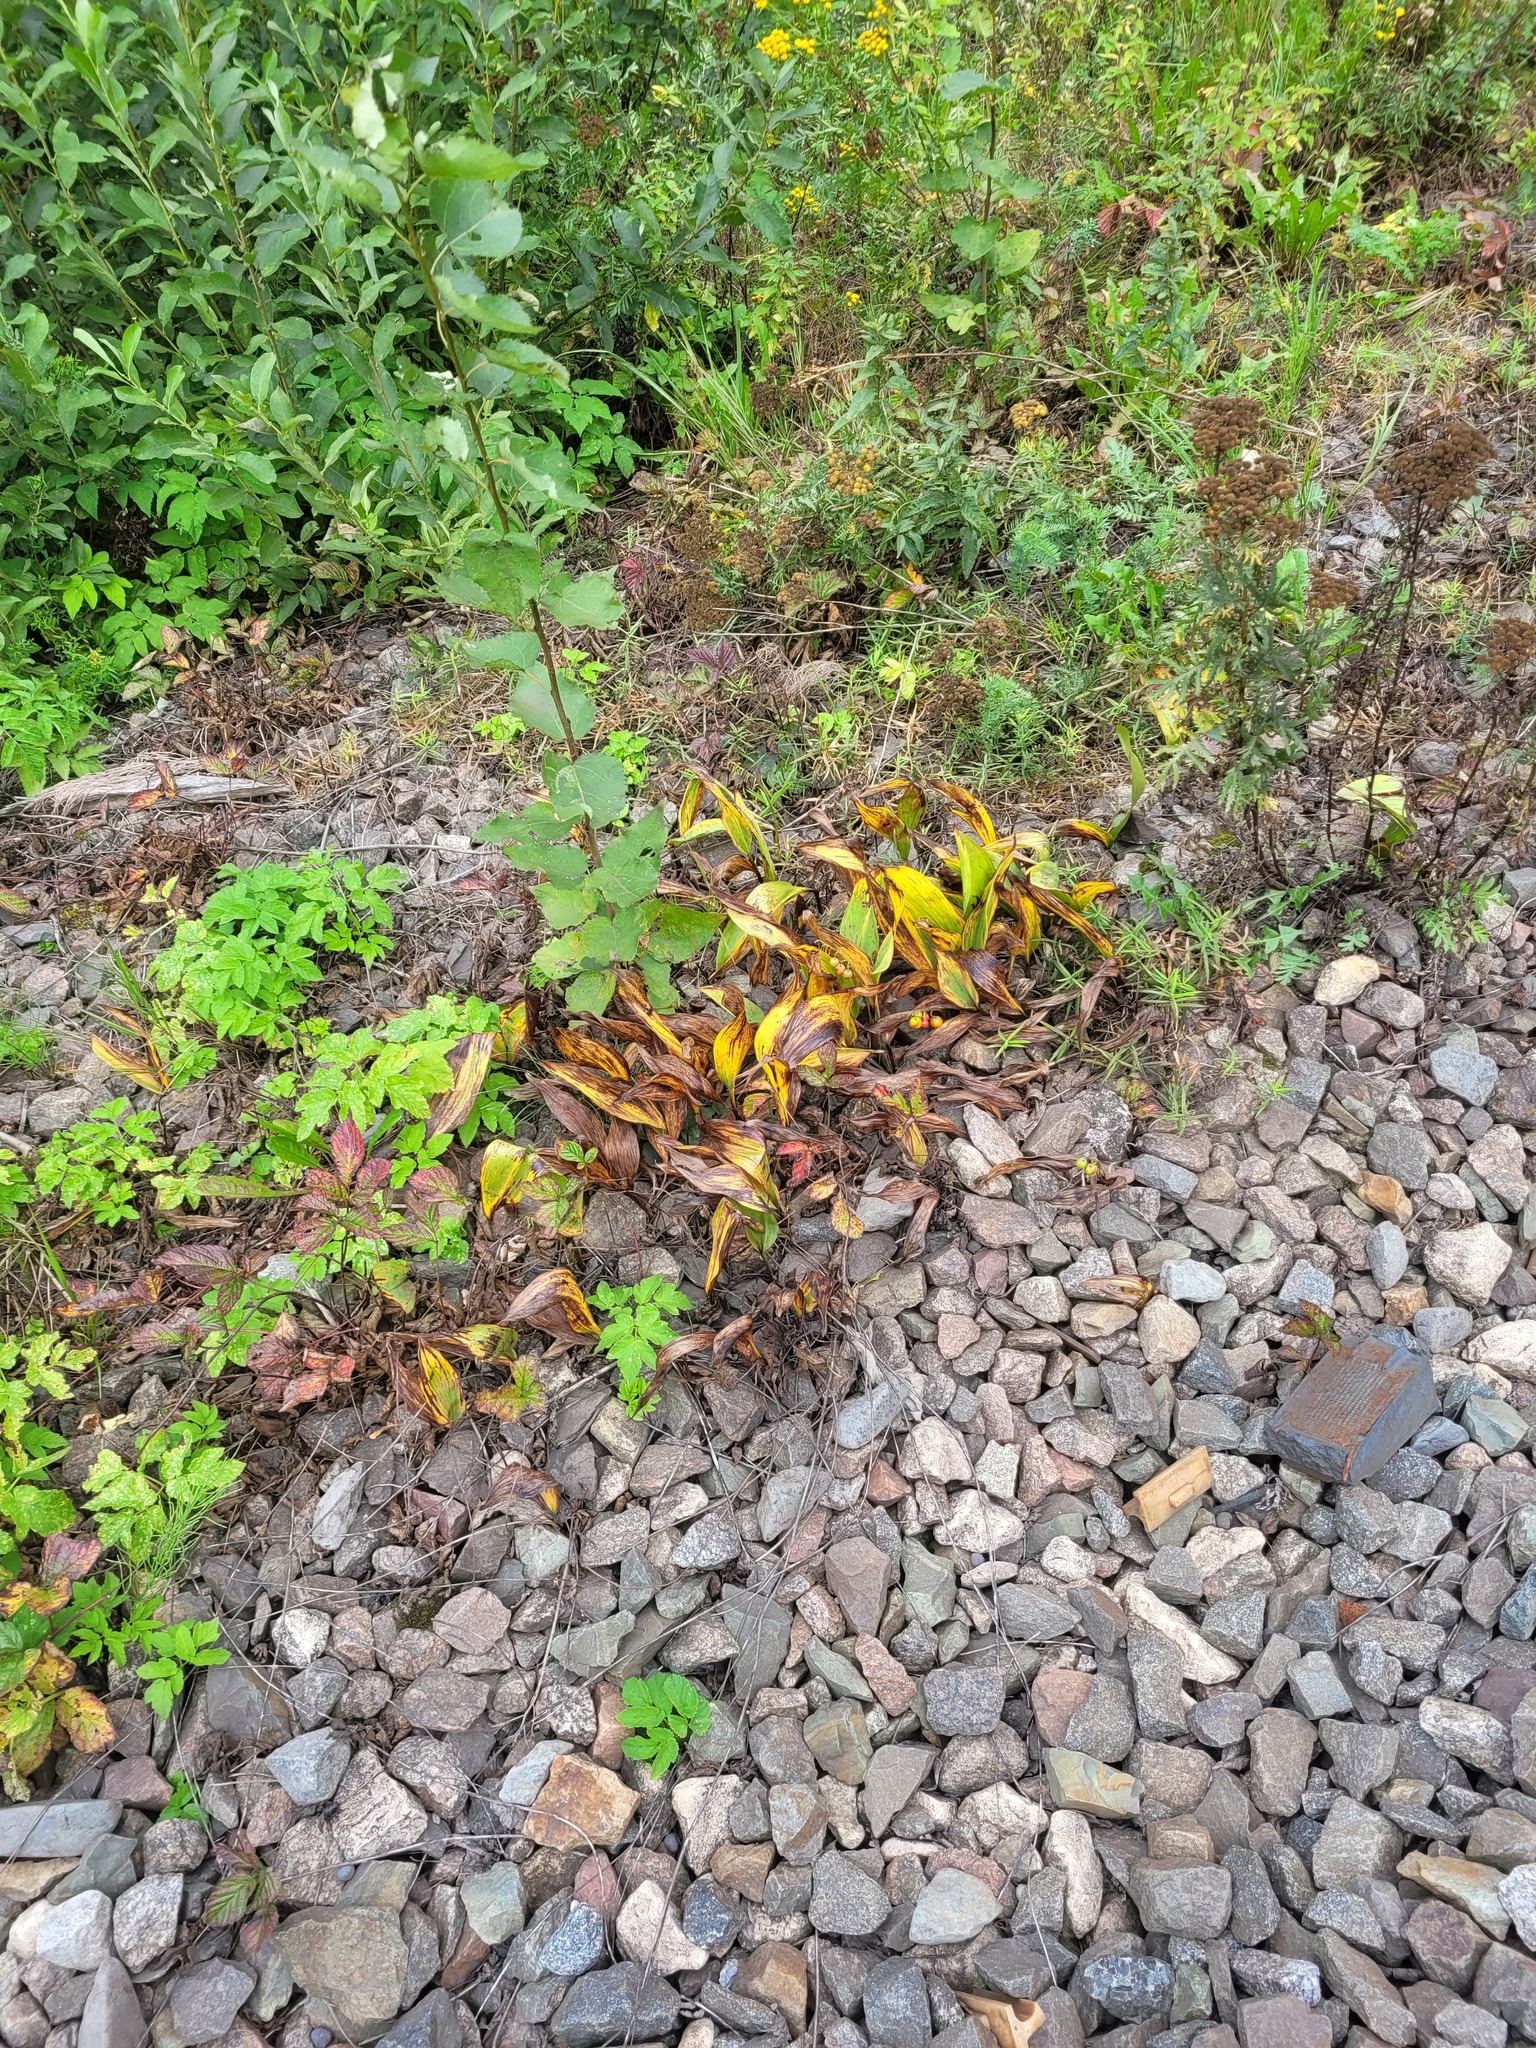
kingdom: Plantae
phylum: Tracheophyta
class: Liliopsida
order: Asparagales
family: Asparagaceae
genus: Convallaria
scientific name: Convallaria majalis
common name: Lily-of-the-valley
